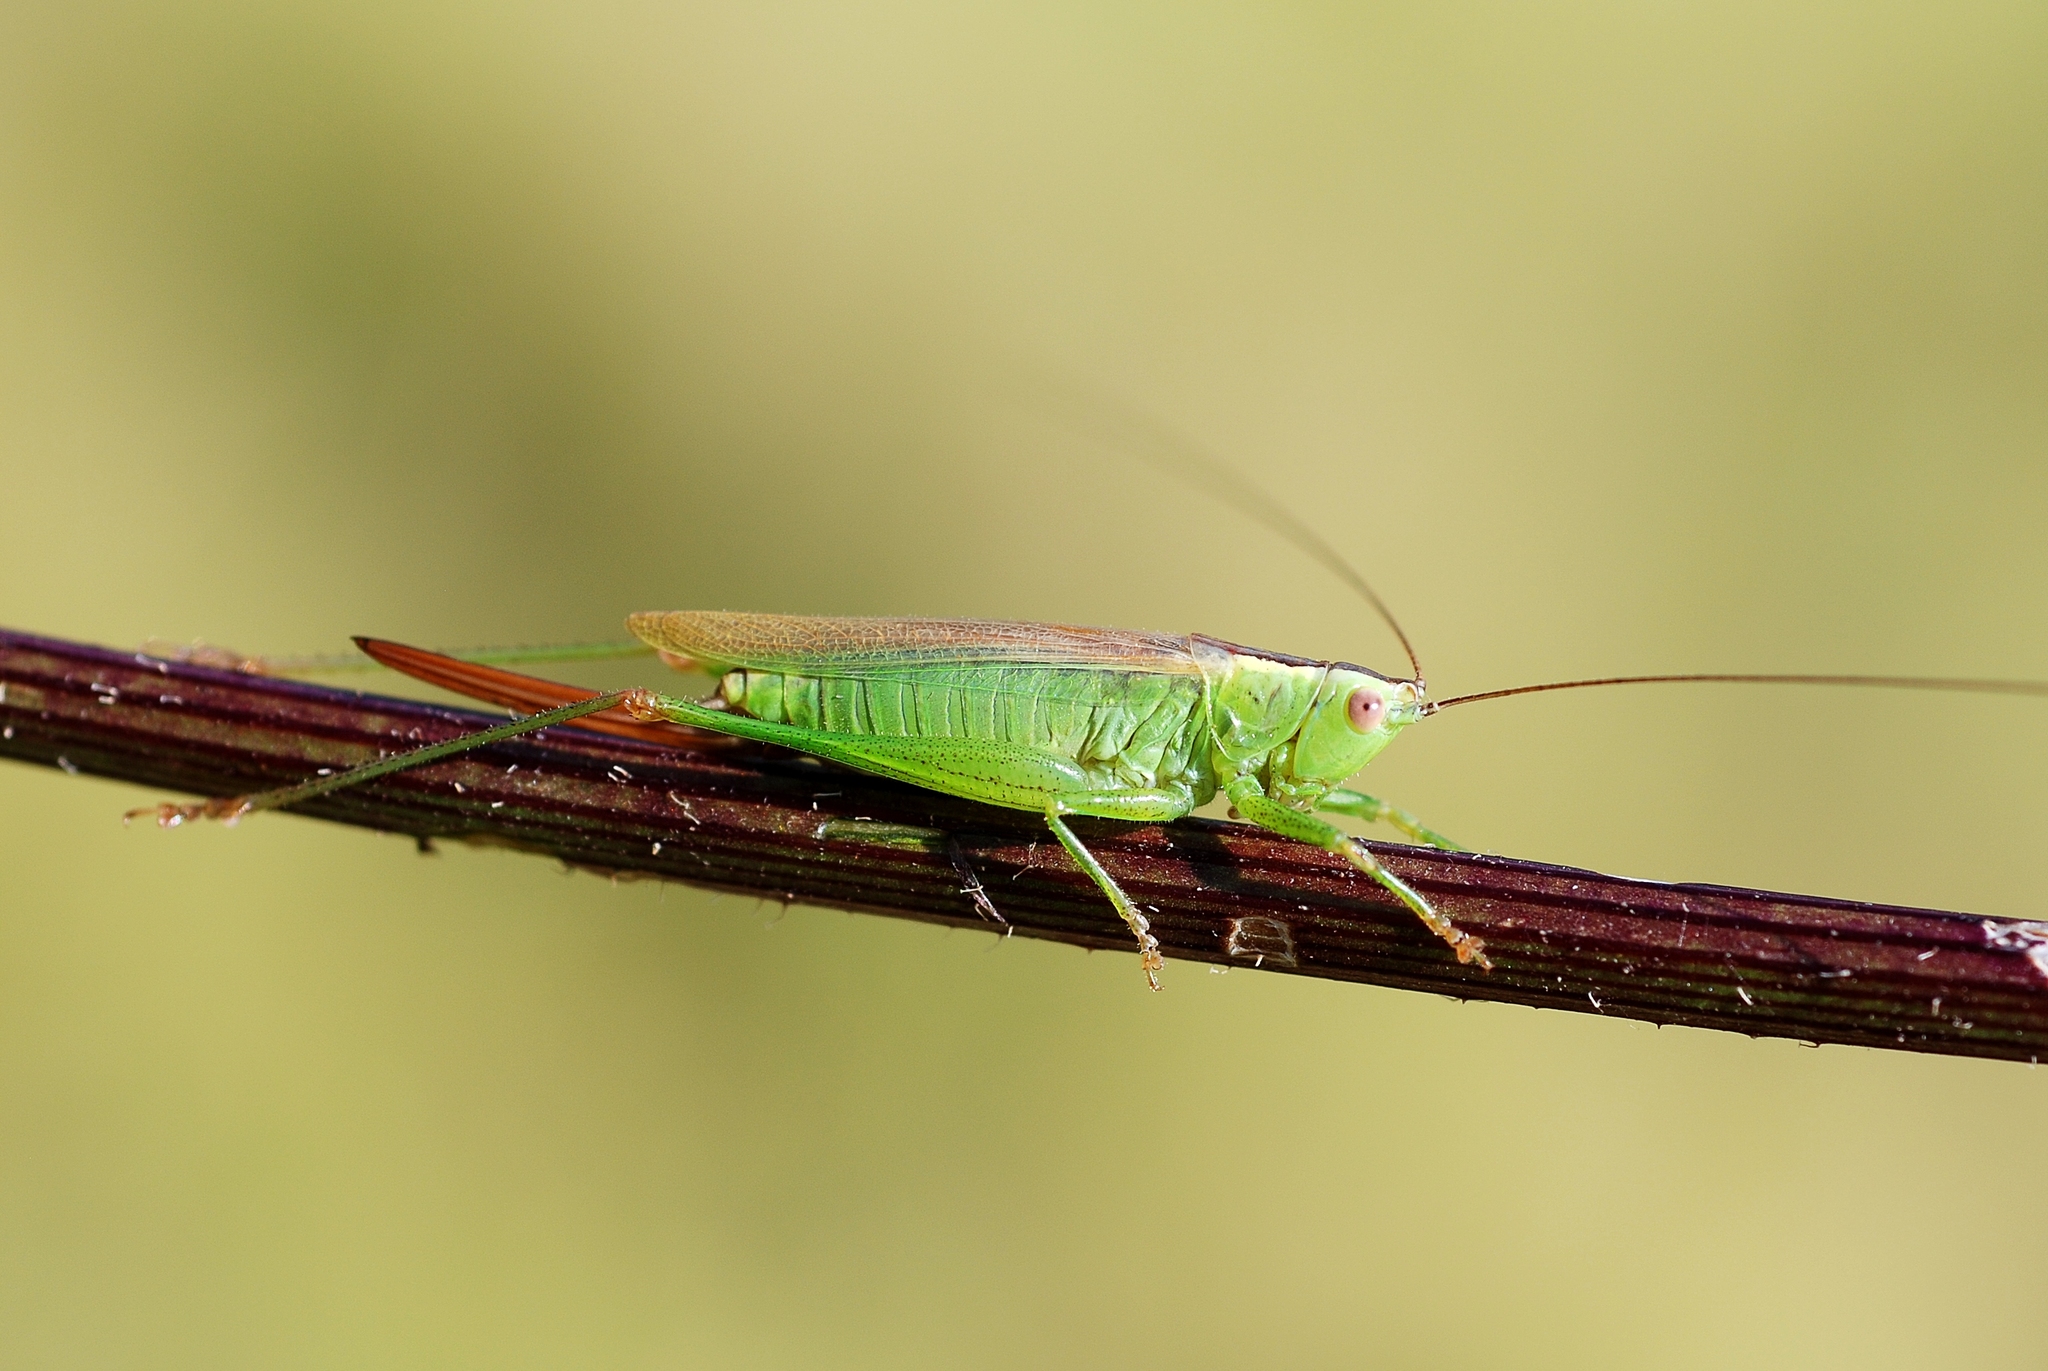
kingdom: Animalia
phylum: Arthropoda
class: Insecta
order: Orthoptera
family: Tettigoniidae
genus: Conocephalus
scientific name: Conocephalus fuscus
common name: Long-winged conehead
